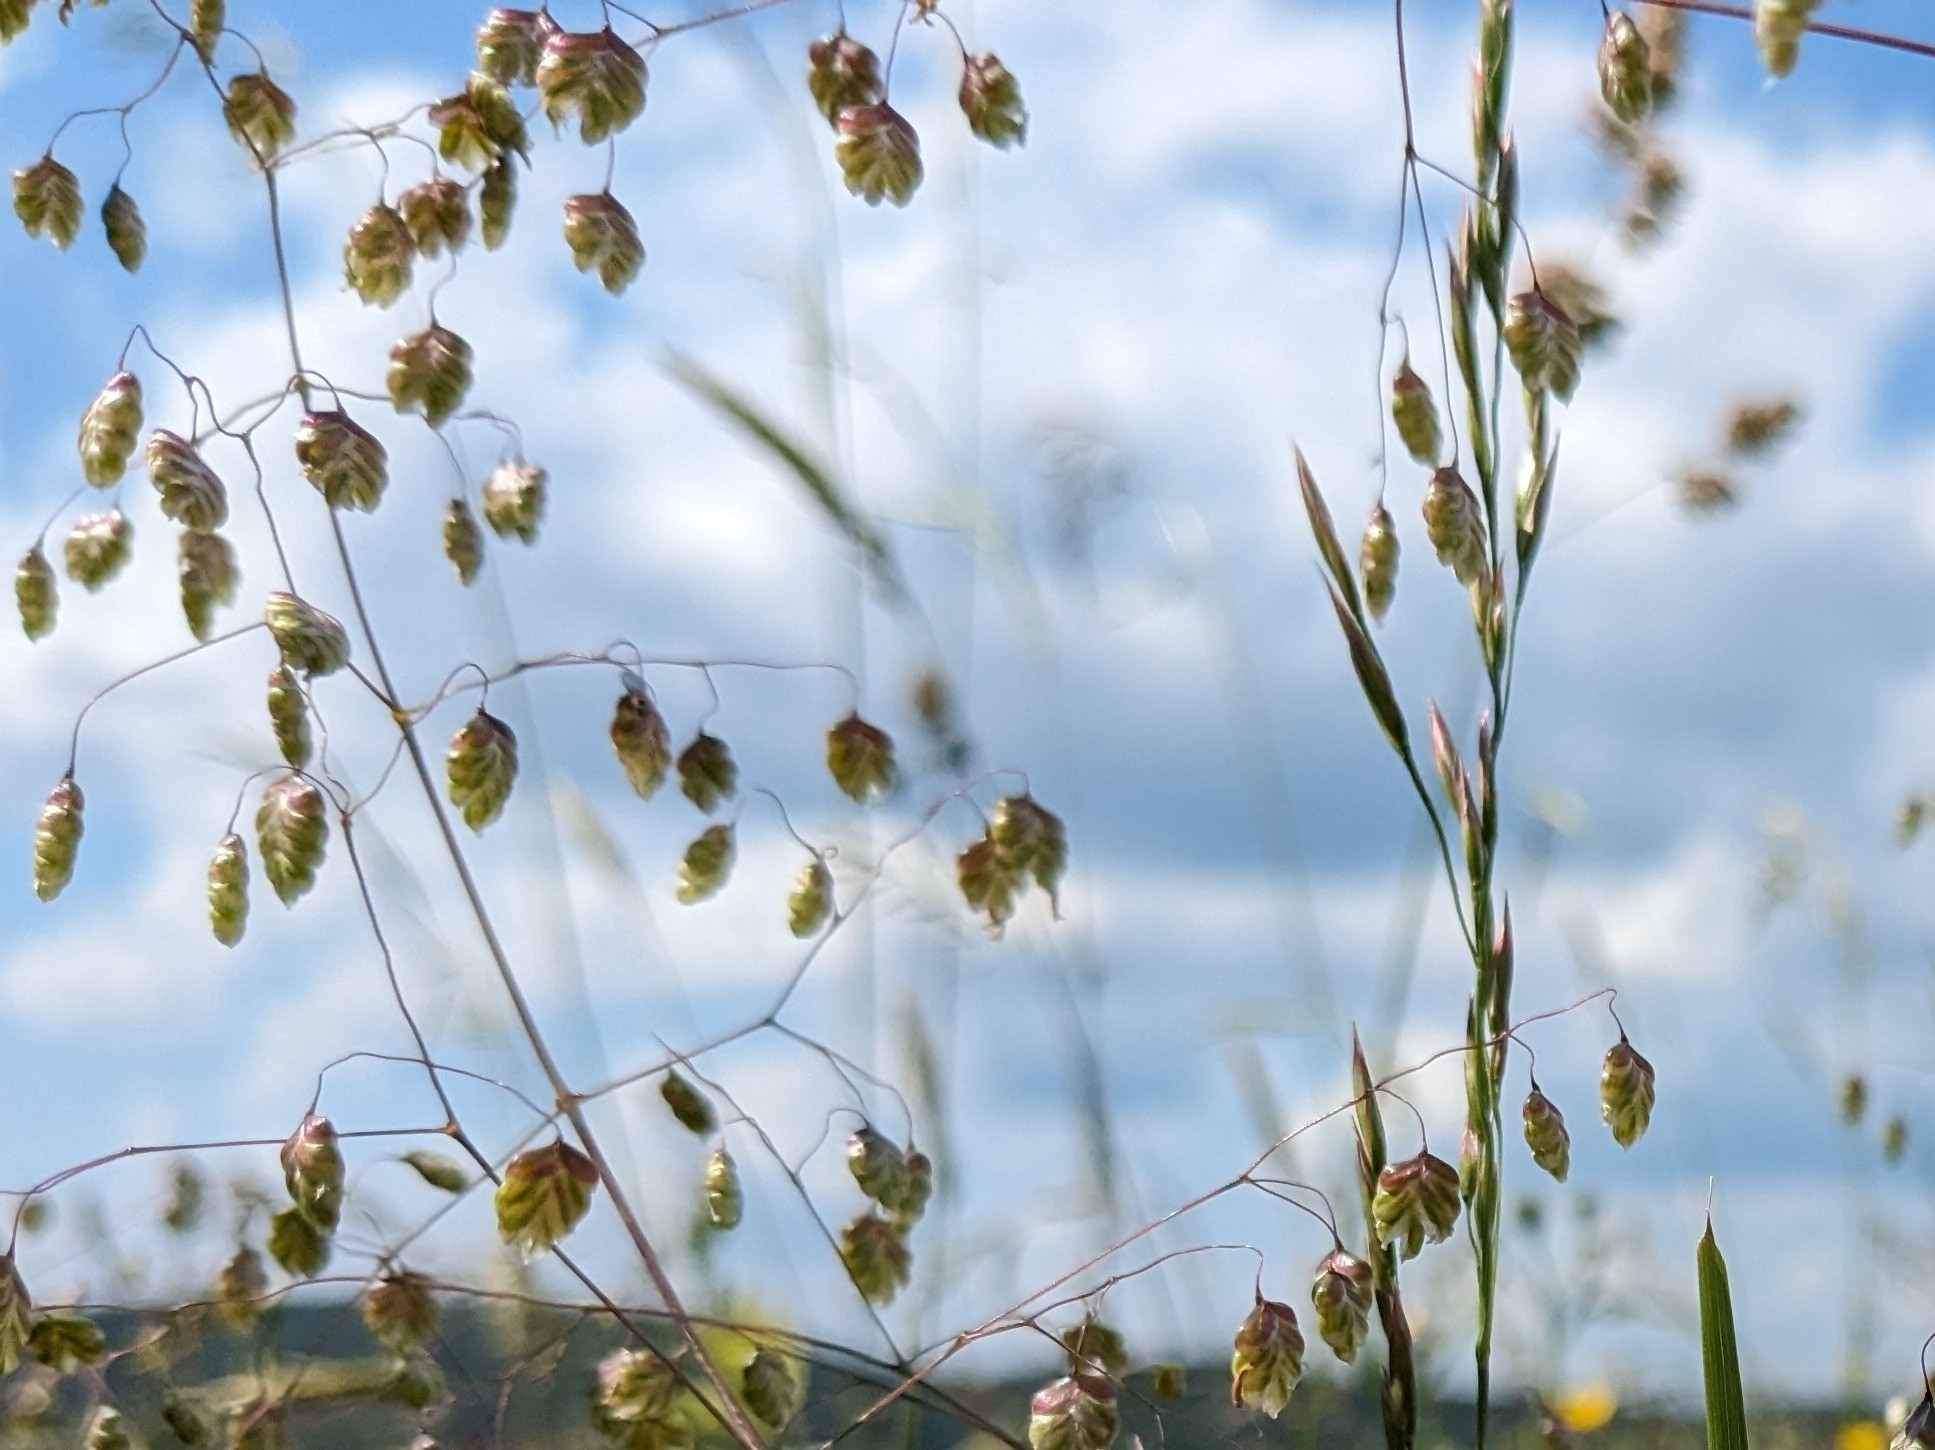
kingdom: Plantae
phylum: Tracheophyta
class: Liliopsida
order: Poales
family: Poaceae
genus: Briza
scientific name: Briza media
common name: Quaking grass
